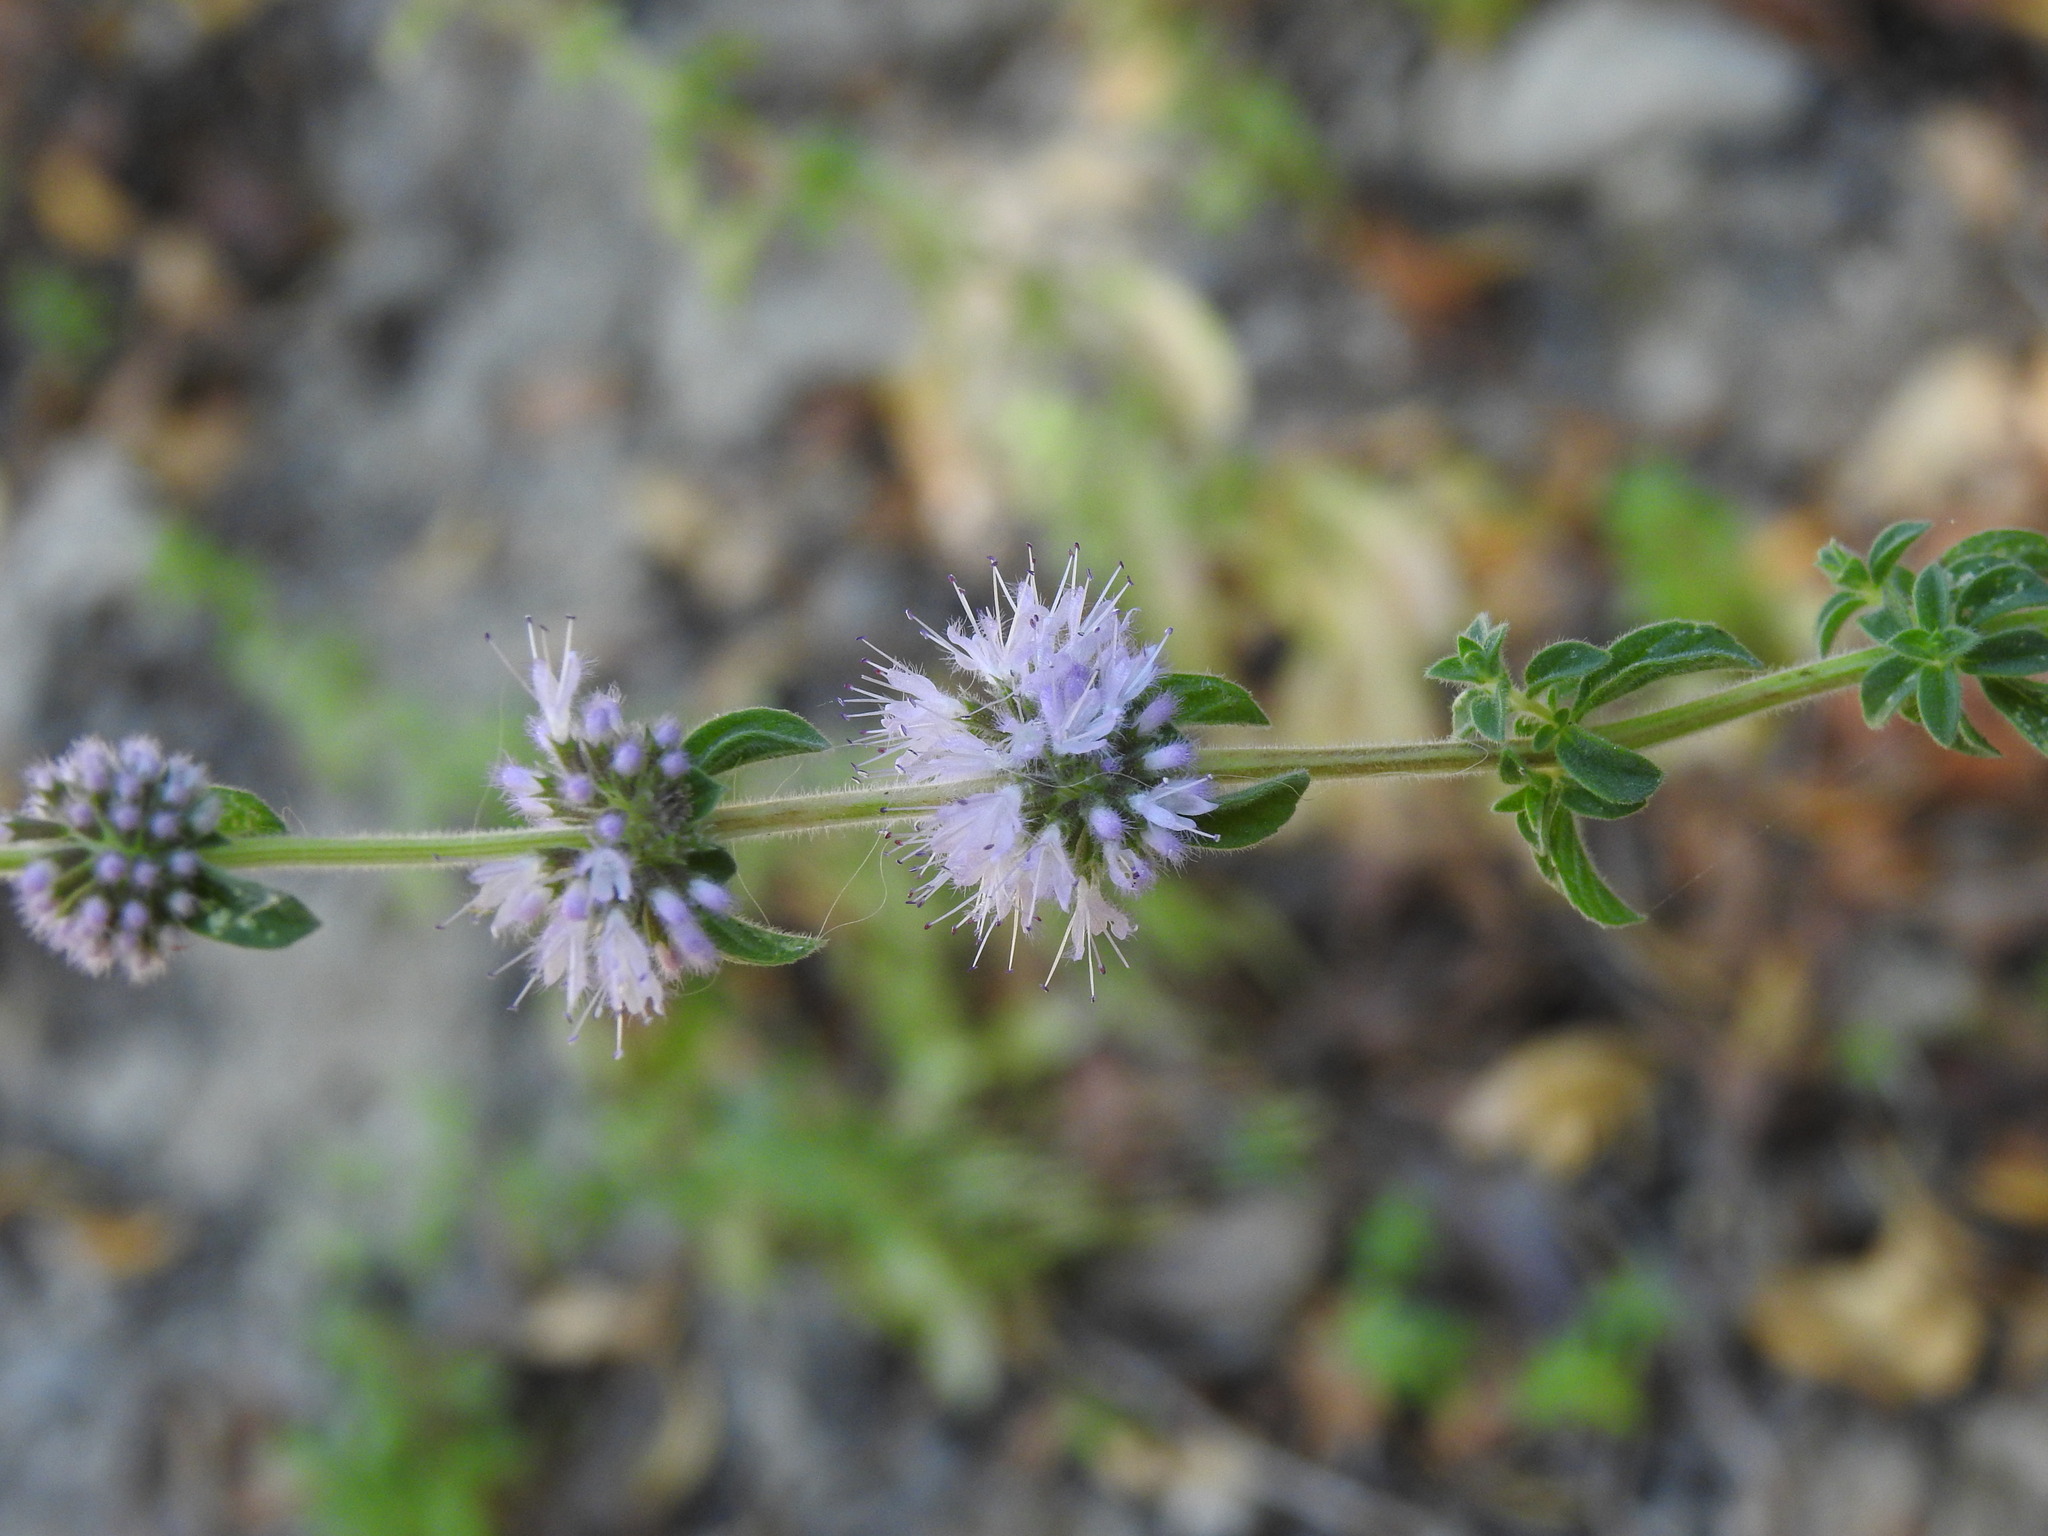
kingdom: Plantae
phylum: Tracheophyta
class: Magnoliopsida
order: Lamiales
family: Lamiaceae
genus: Mentha
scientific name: Mentha pulegium
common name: Pennyroyal
